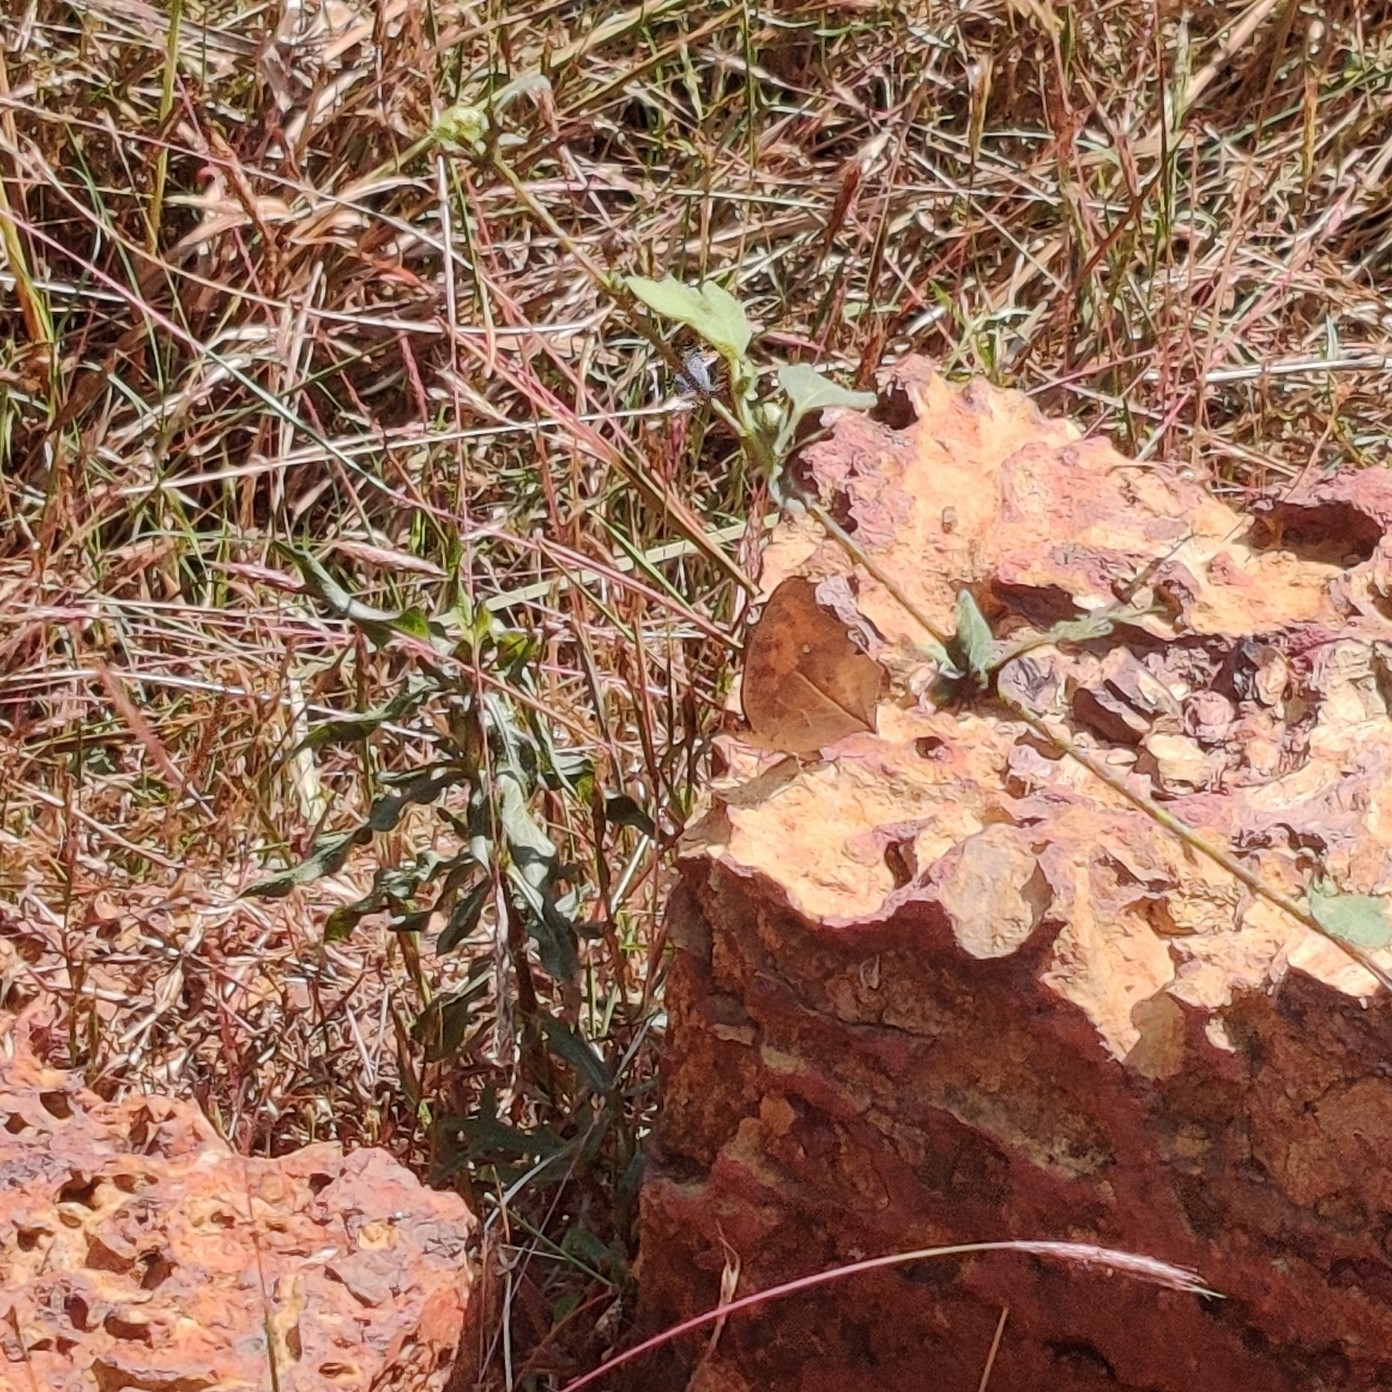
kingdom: Animalia
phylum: Arthropoda
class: Insecta
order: Lepidoptera
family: Nymphalidae
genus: Junonia
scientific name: Junonia almana
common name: Peacock pansy
